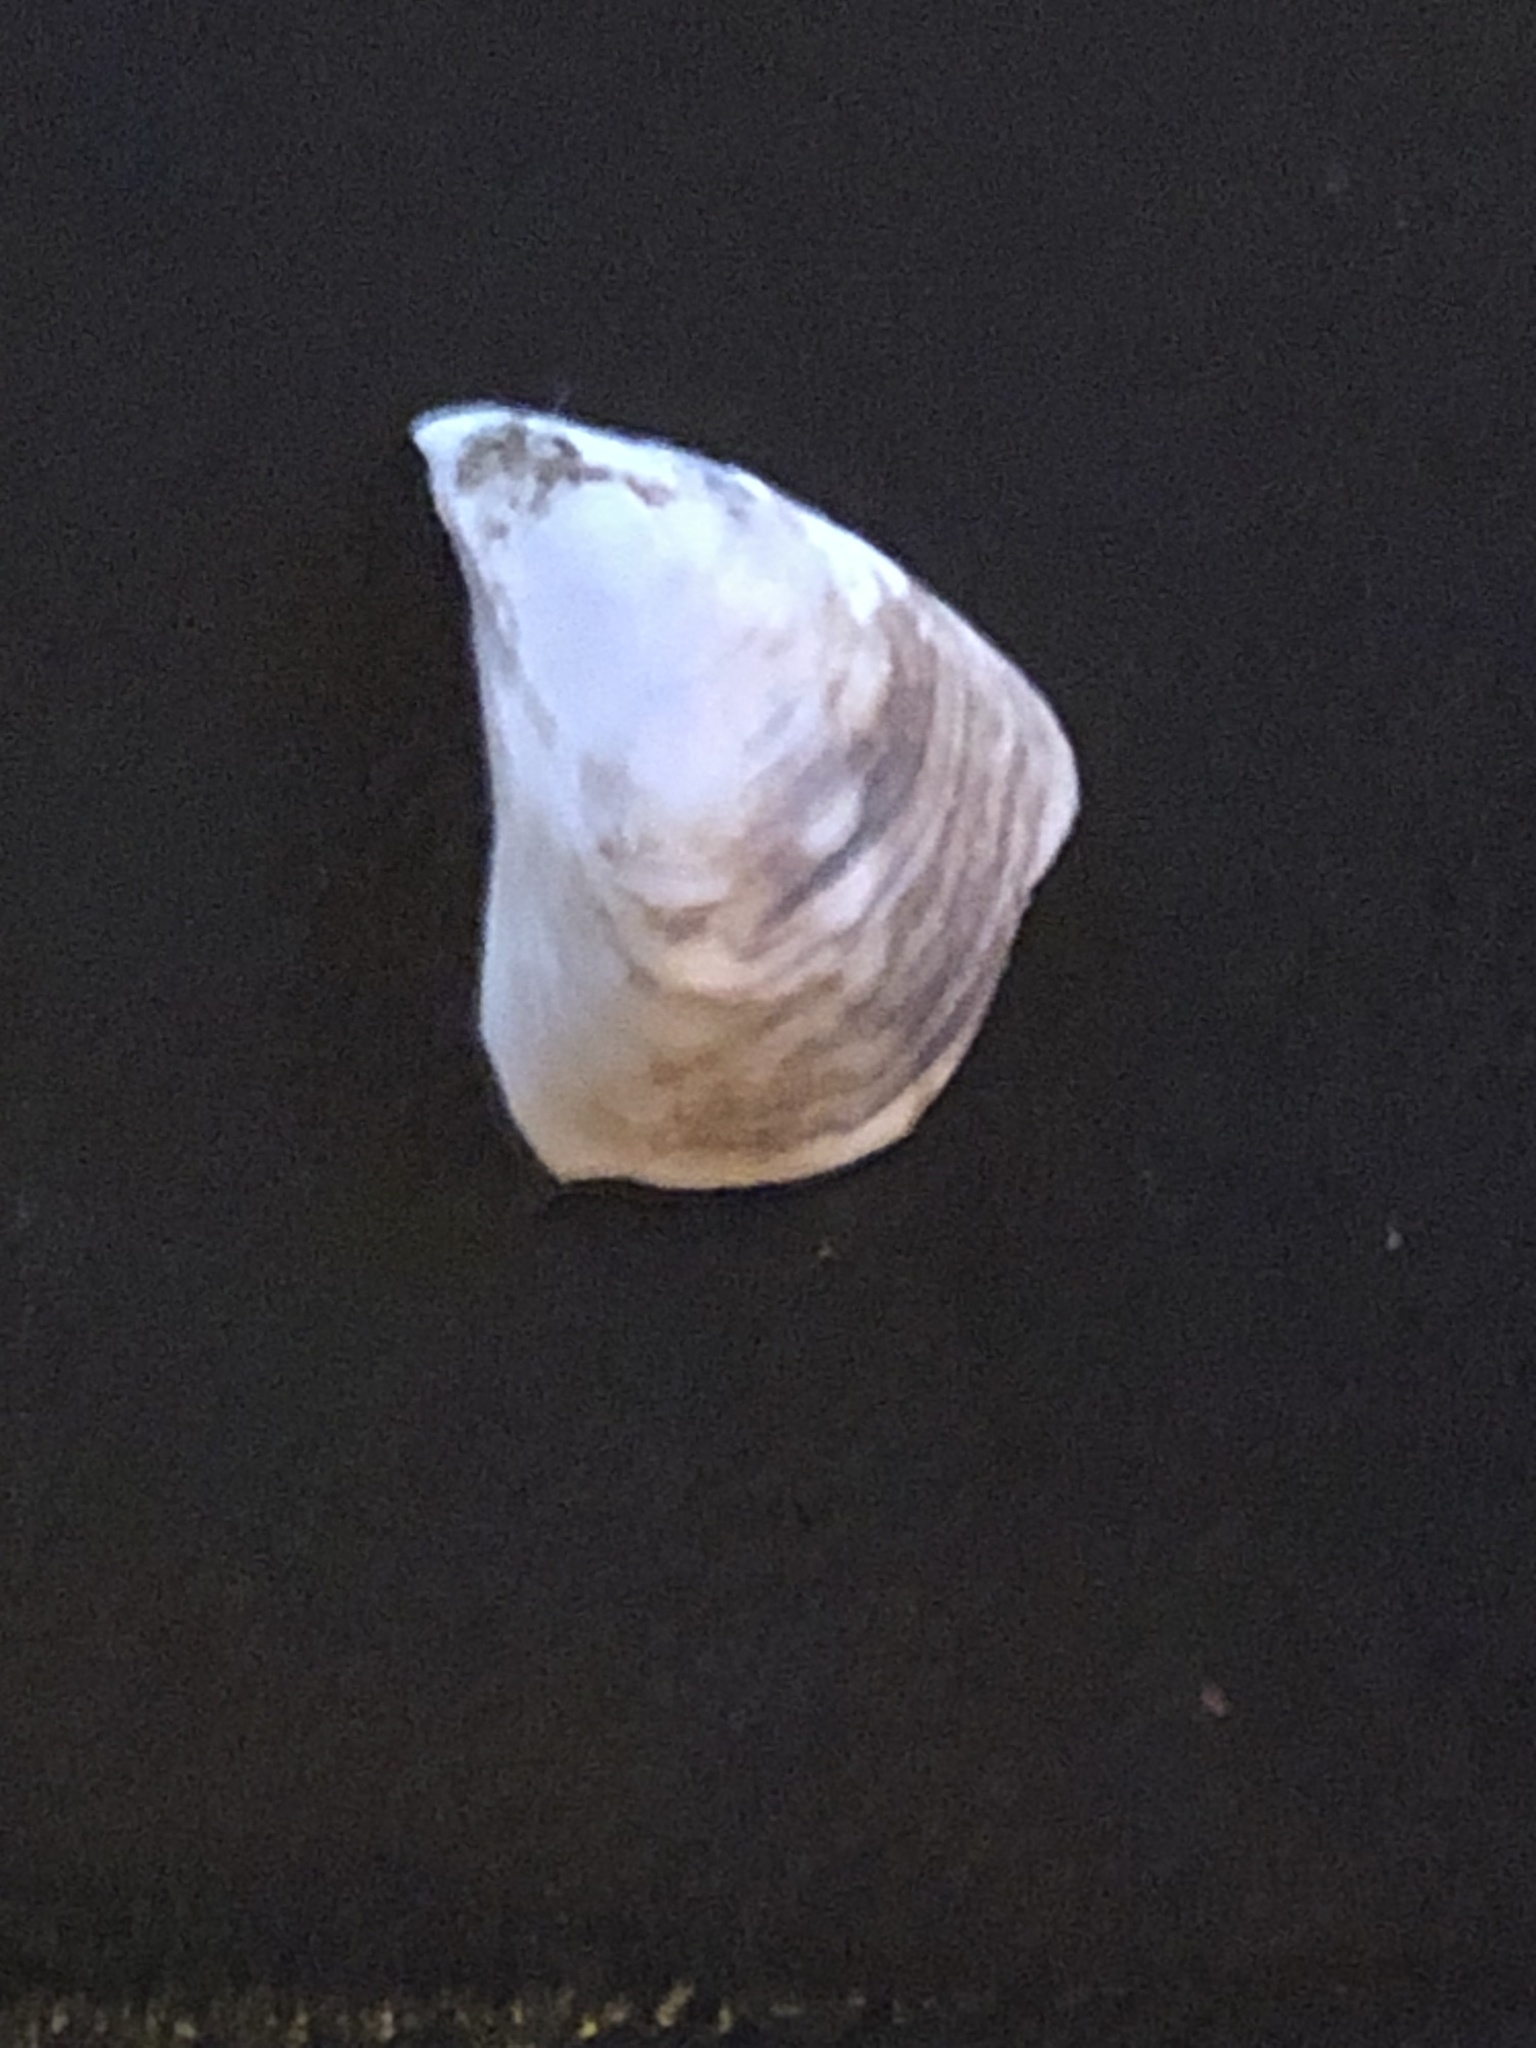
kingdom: Animalia
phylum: Mollusca
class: Bivalvia
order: Myida
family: Dreissenidae
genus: Dreissena
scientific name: Dreissena bugensis
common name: Quagga mussel
